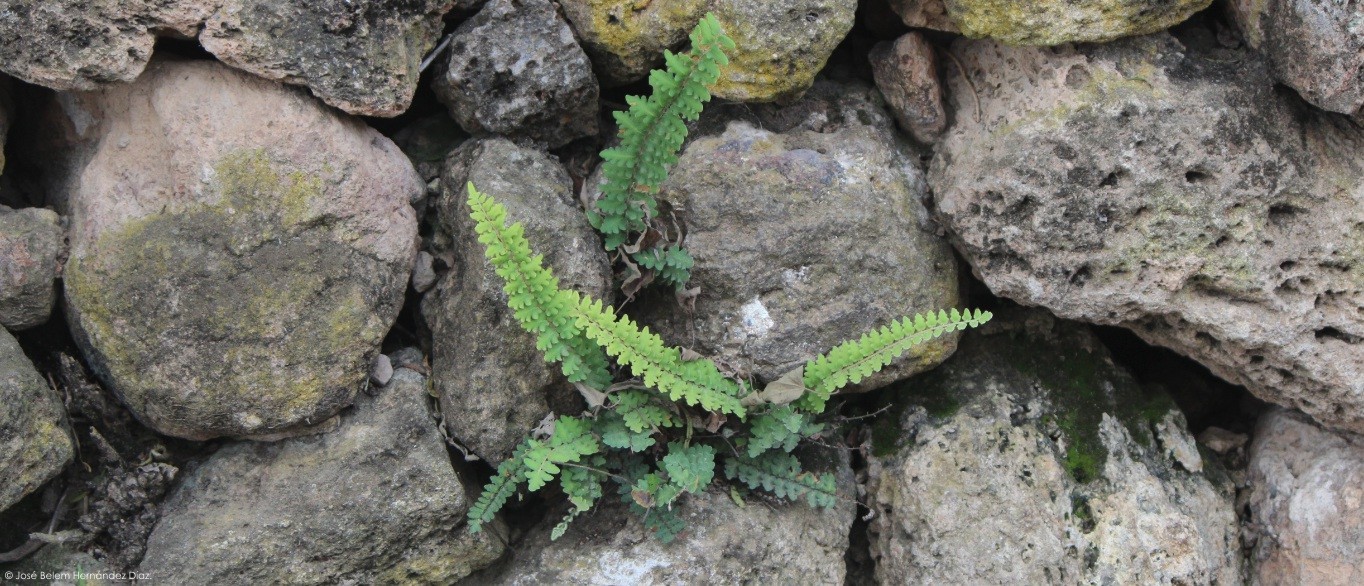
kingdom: Plantae
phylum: Tracheophyta
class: Polypodiopsida
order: Polypodiales
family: Pteridaceae
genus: Astrolepis
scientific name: Astrolepis sinuata
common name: Wavy scaly cloakfern
